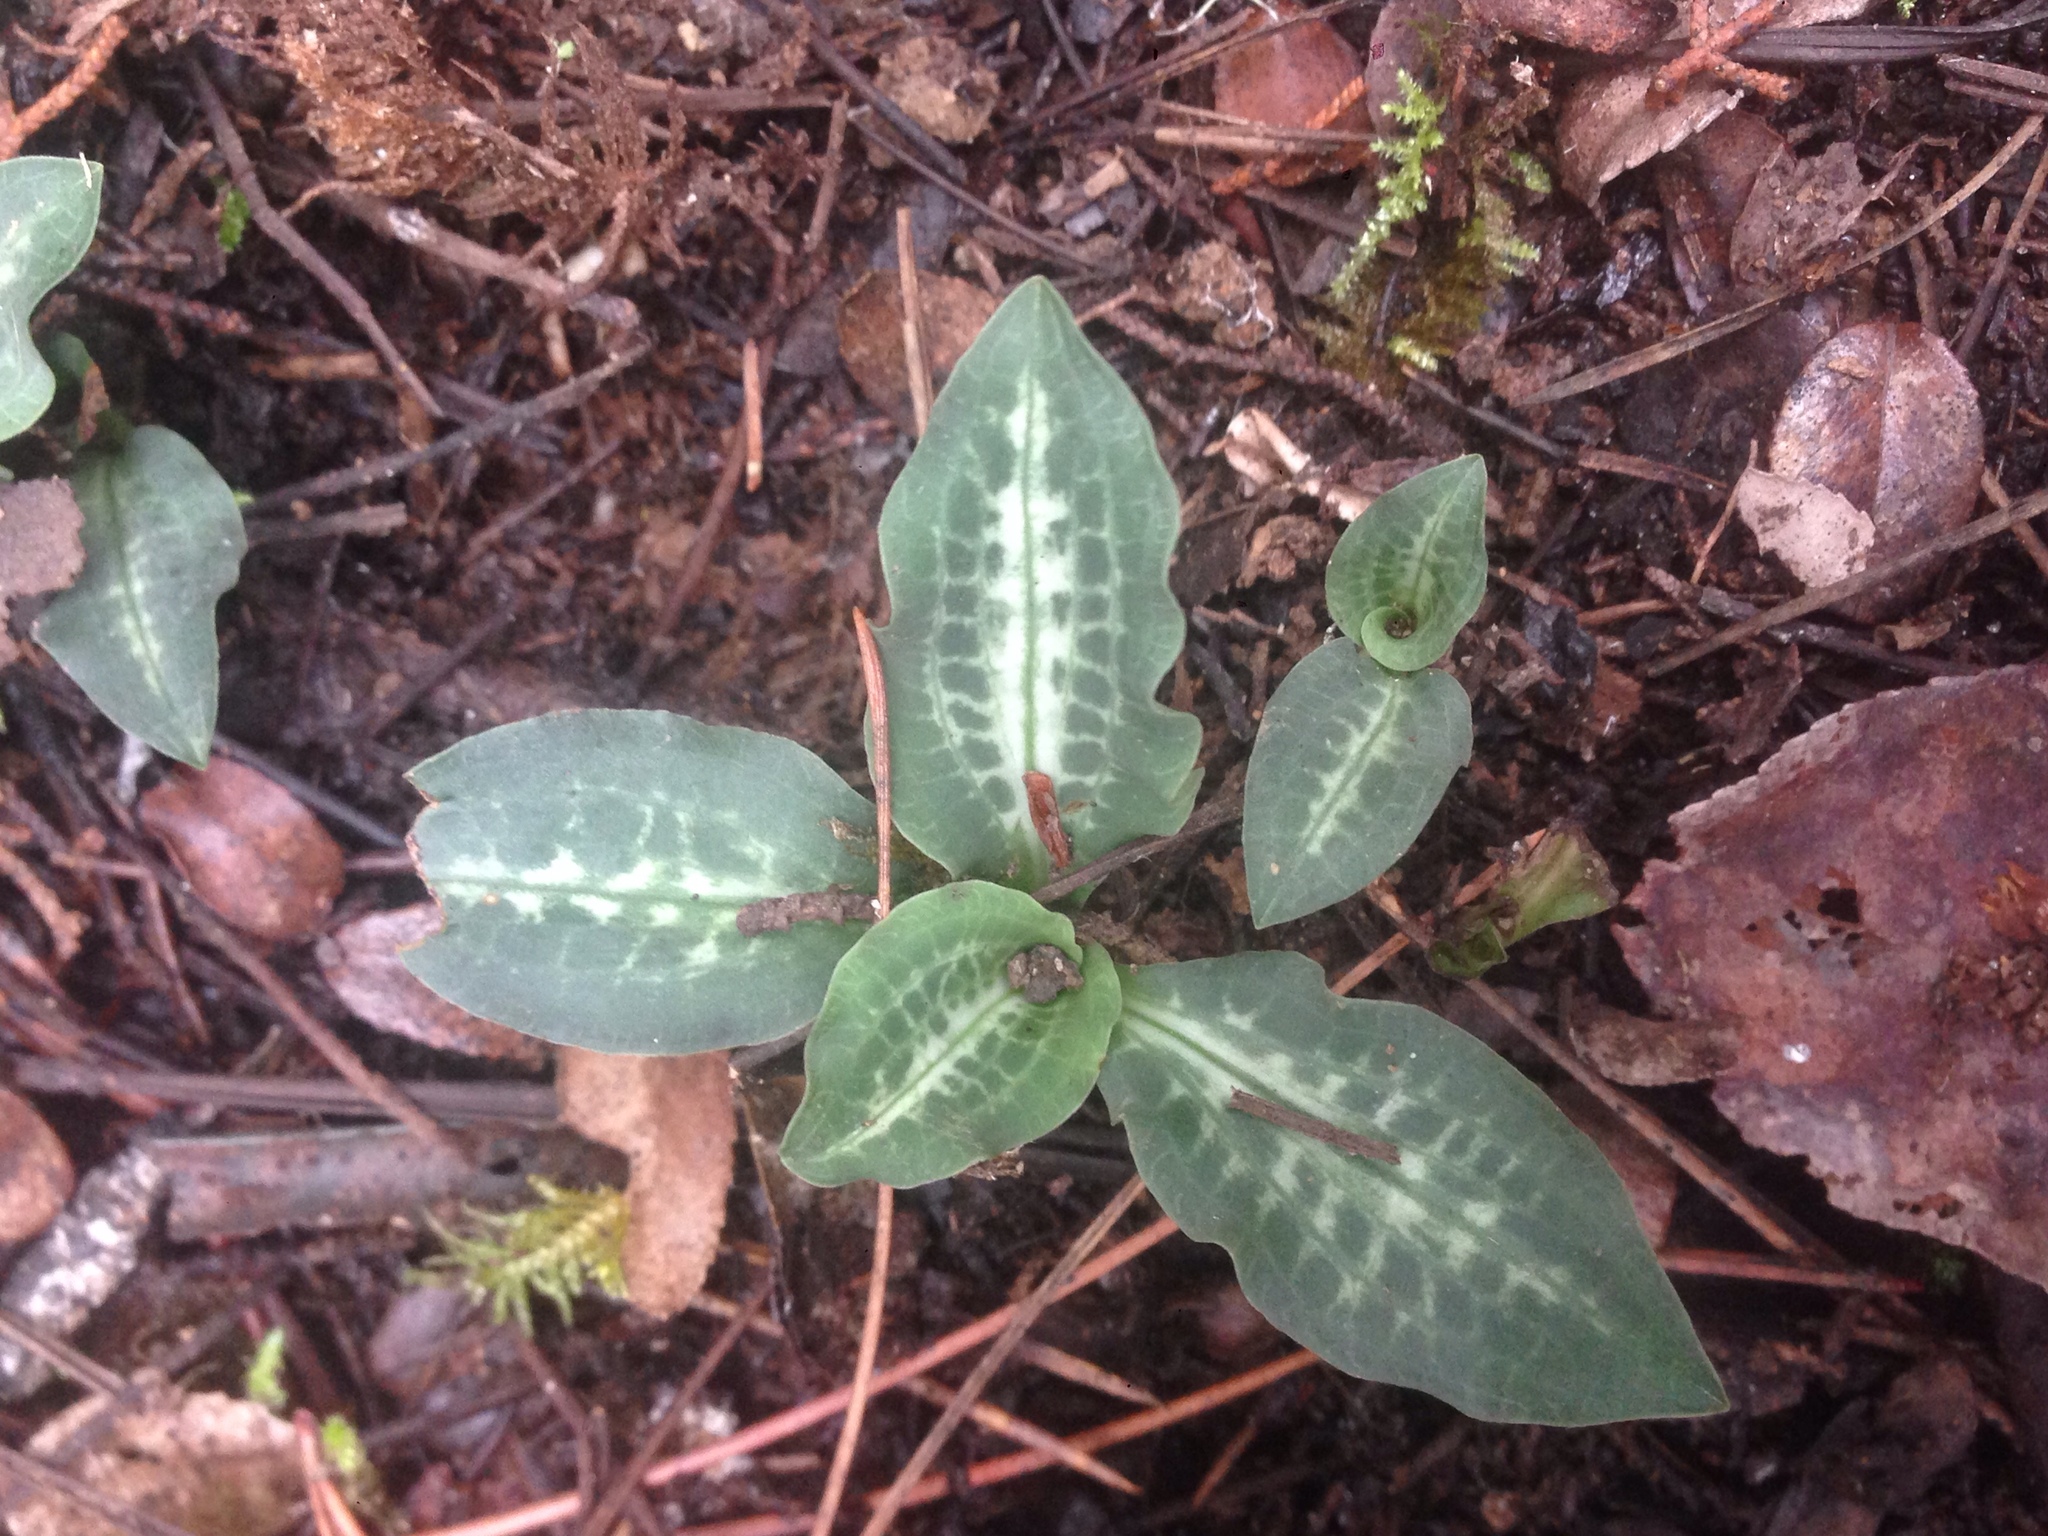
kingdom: Plantae
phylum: Tracheophyta
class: Liliopsida
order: Asparagales
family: Orchidaceae
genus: Goodyera
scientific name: Goodyera oblongifolia
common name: Giant rattlesnake-plantain
